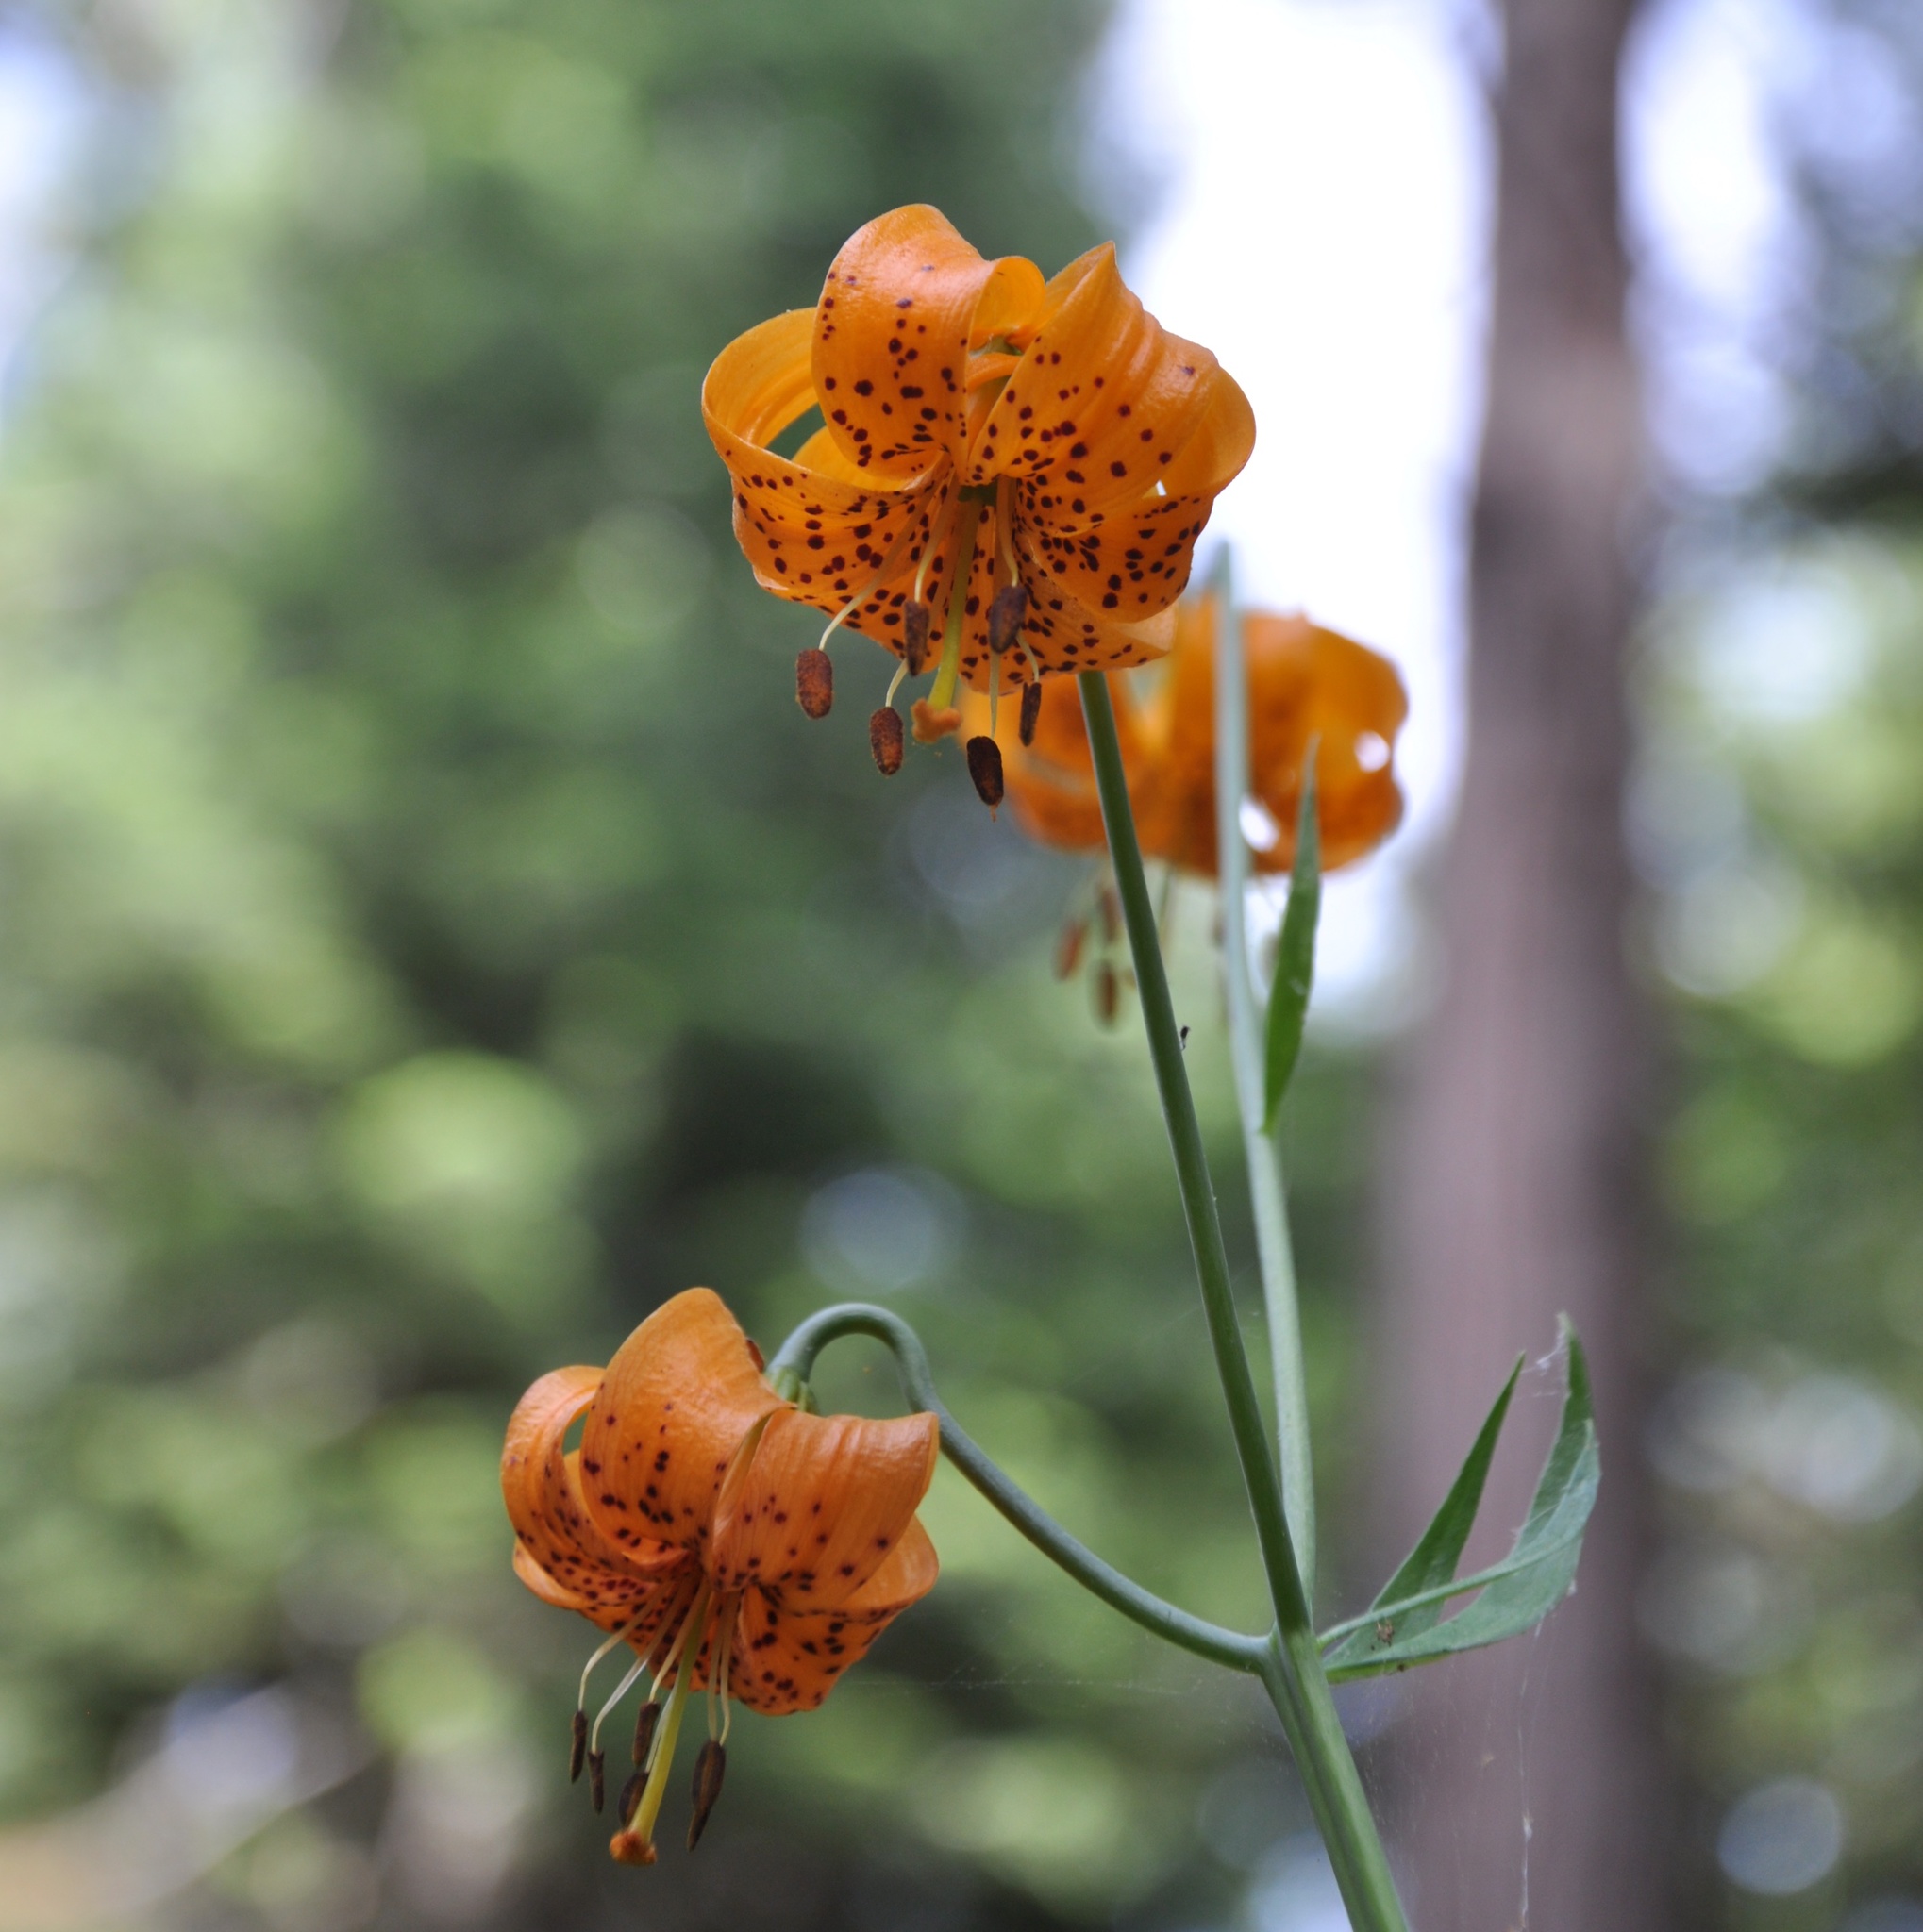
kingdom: Plantae
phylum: Tracheophyta
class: Liliopsida
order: Liliales
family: Liliaceae
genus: Lilium
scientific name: Lilium kelleyanum
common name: Kelley's lily
